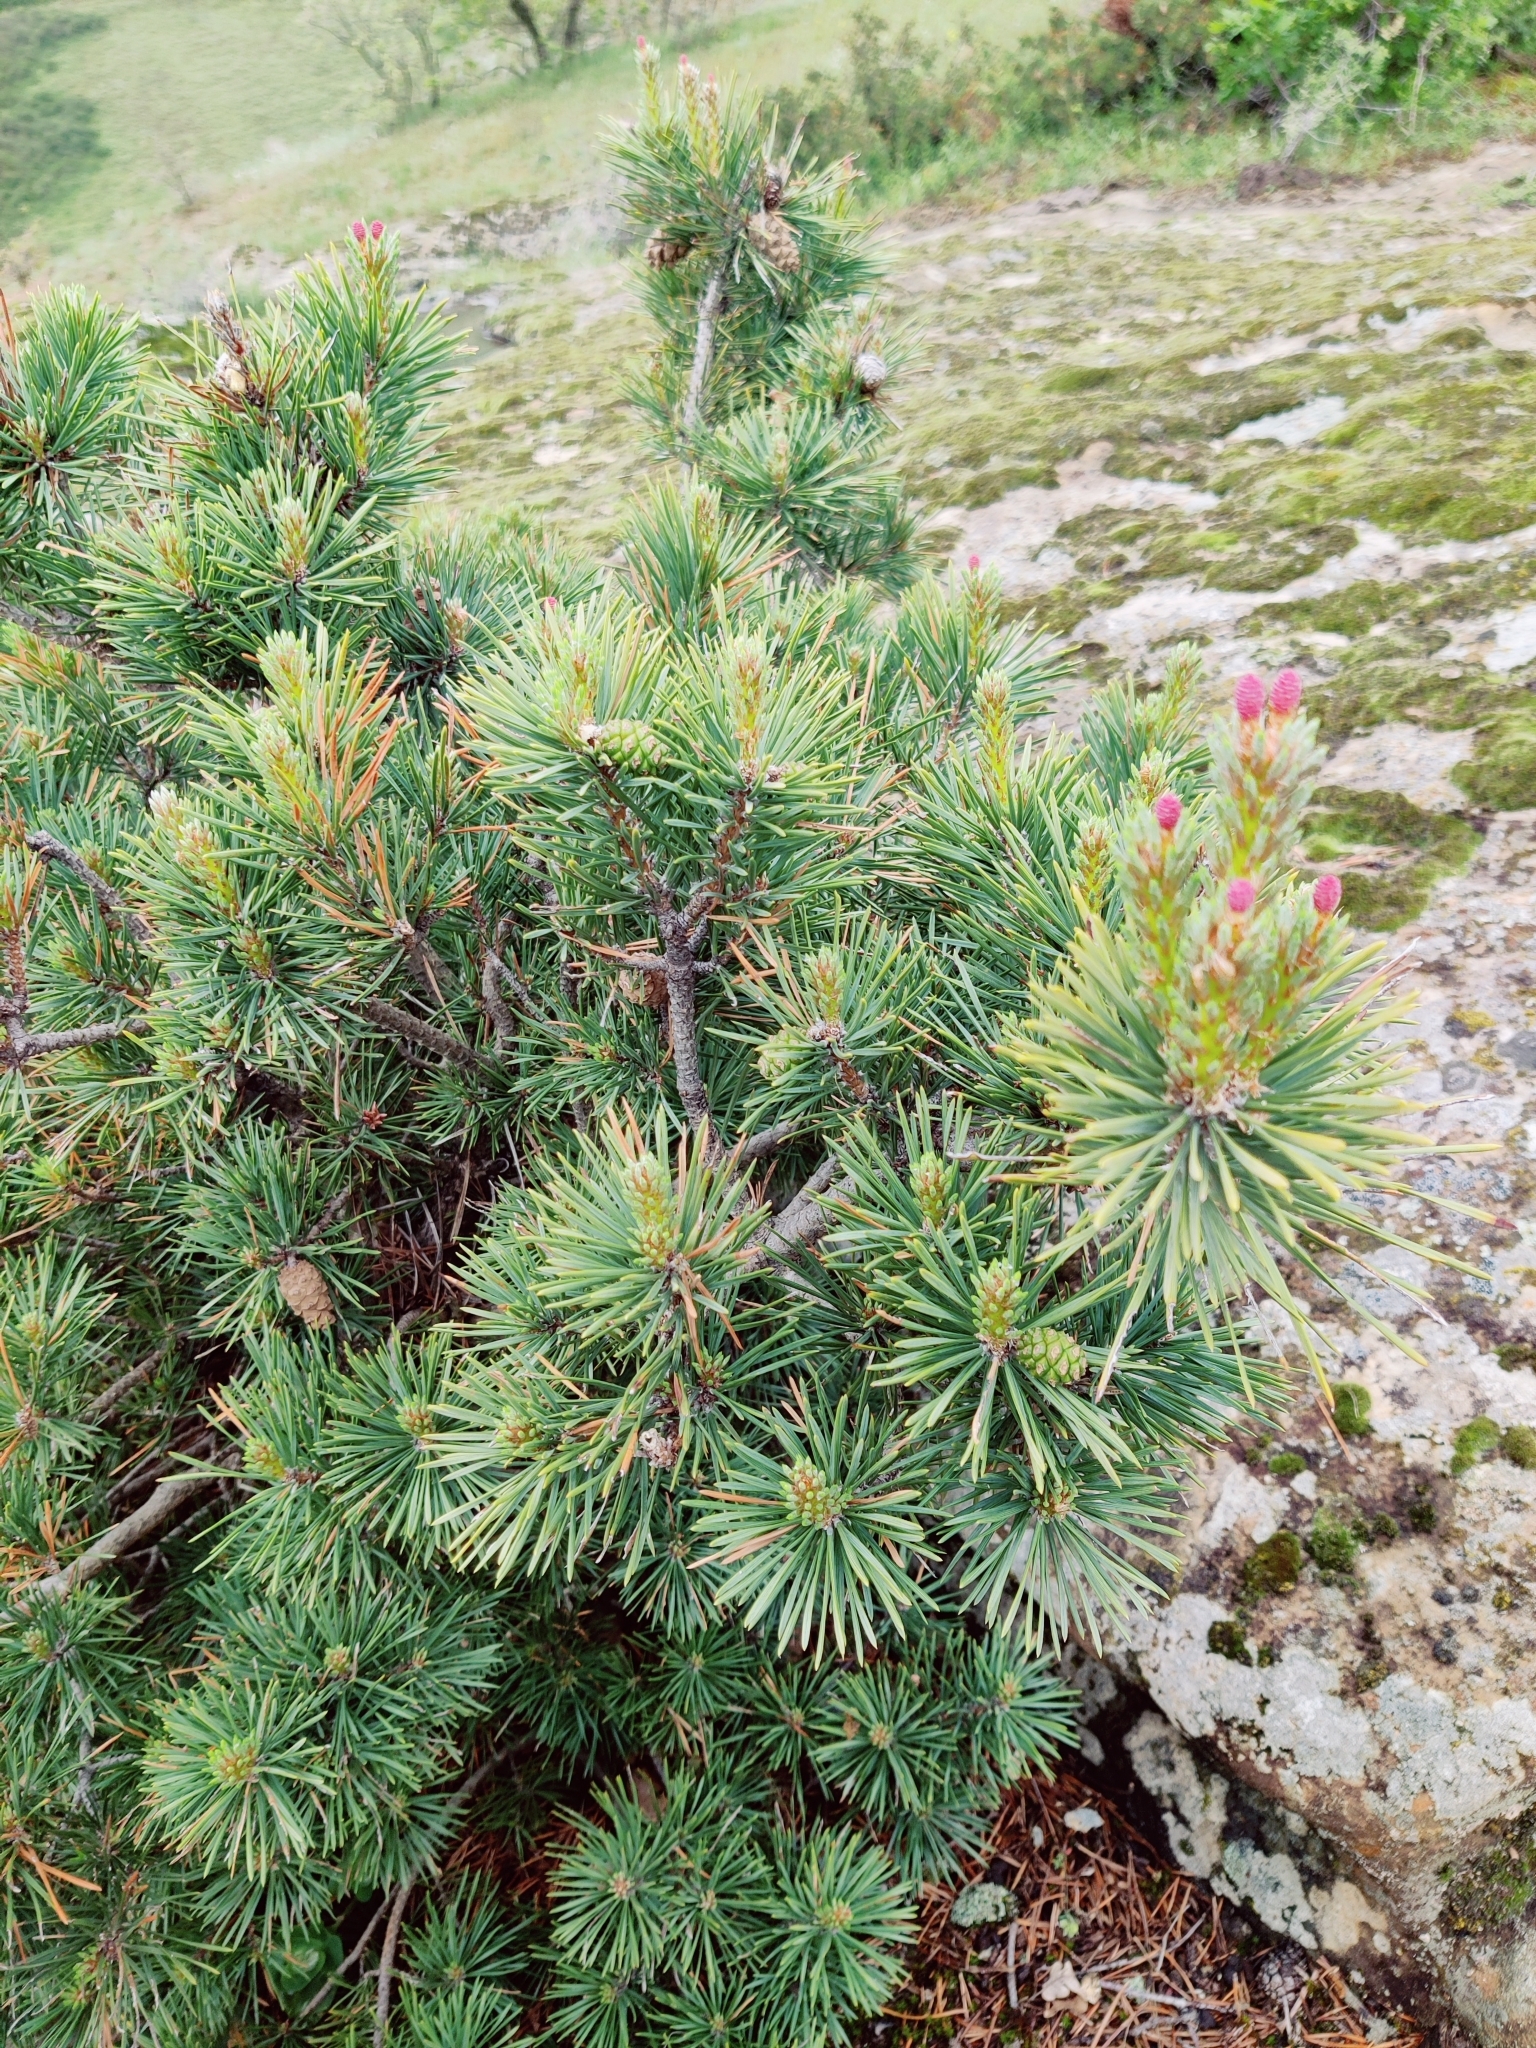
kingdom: Plantae
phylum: Tracheophyta
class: Pinopsida
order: Pinales
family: Pinaceae
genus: Pinus
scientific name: Pinus sylvestris
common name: Scots pine
